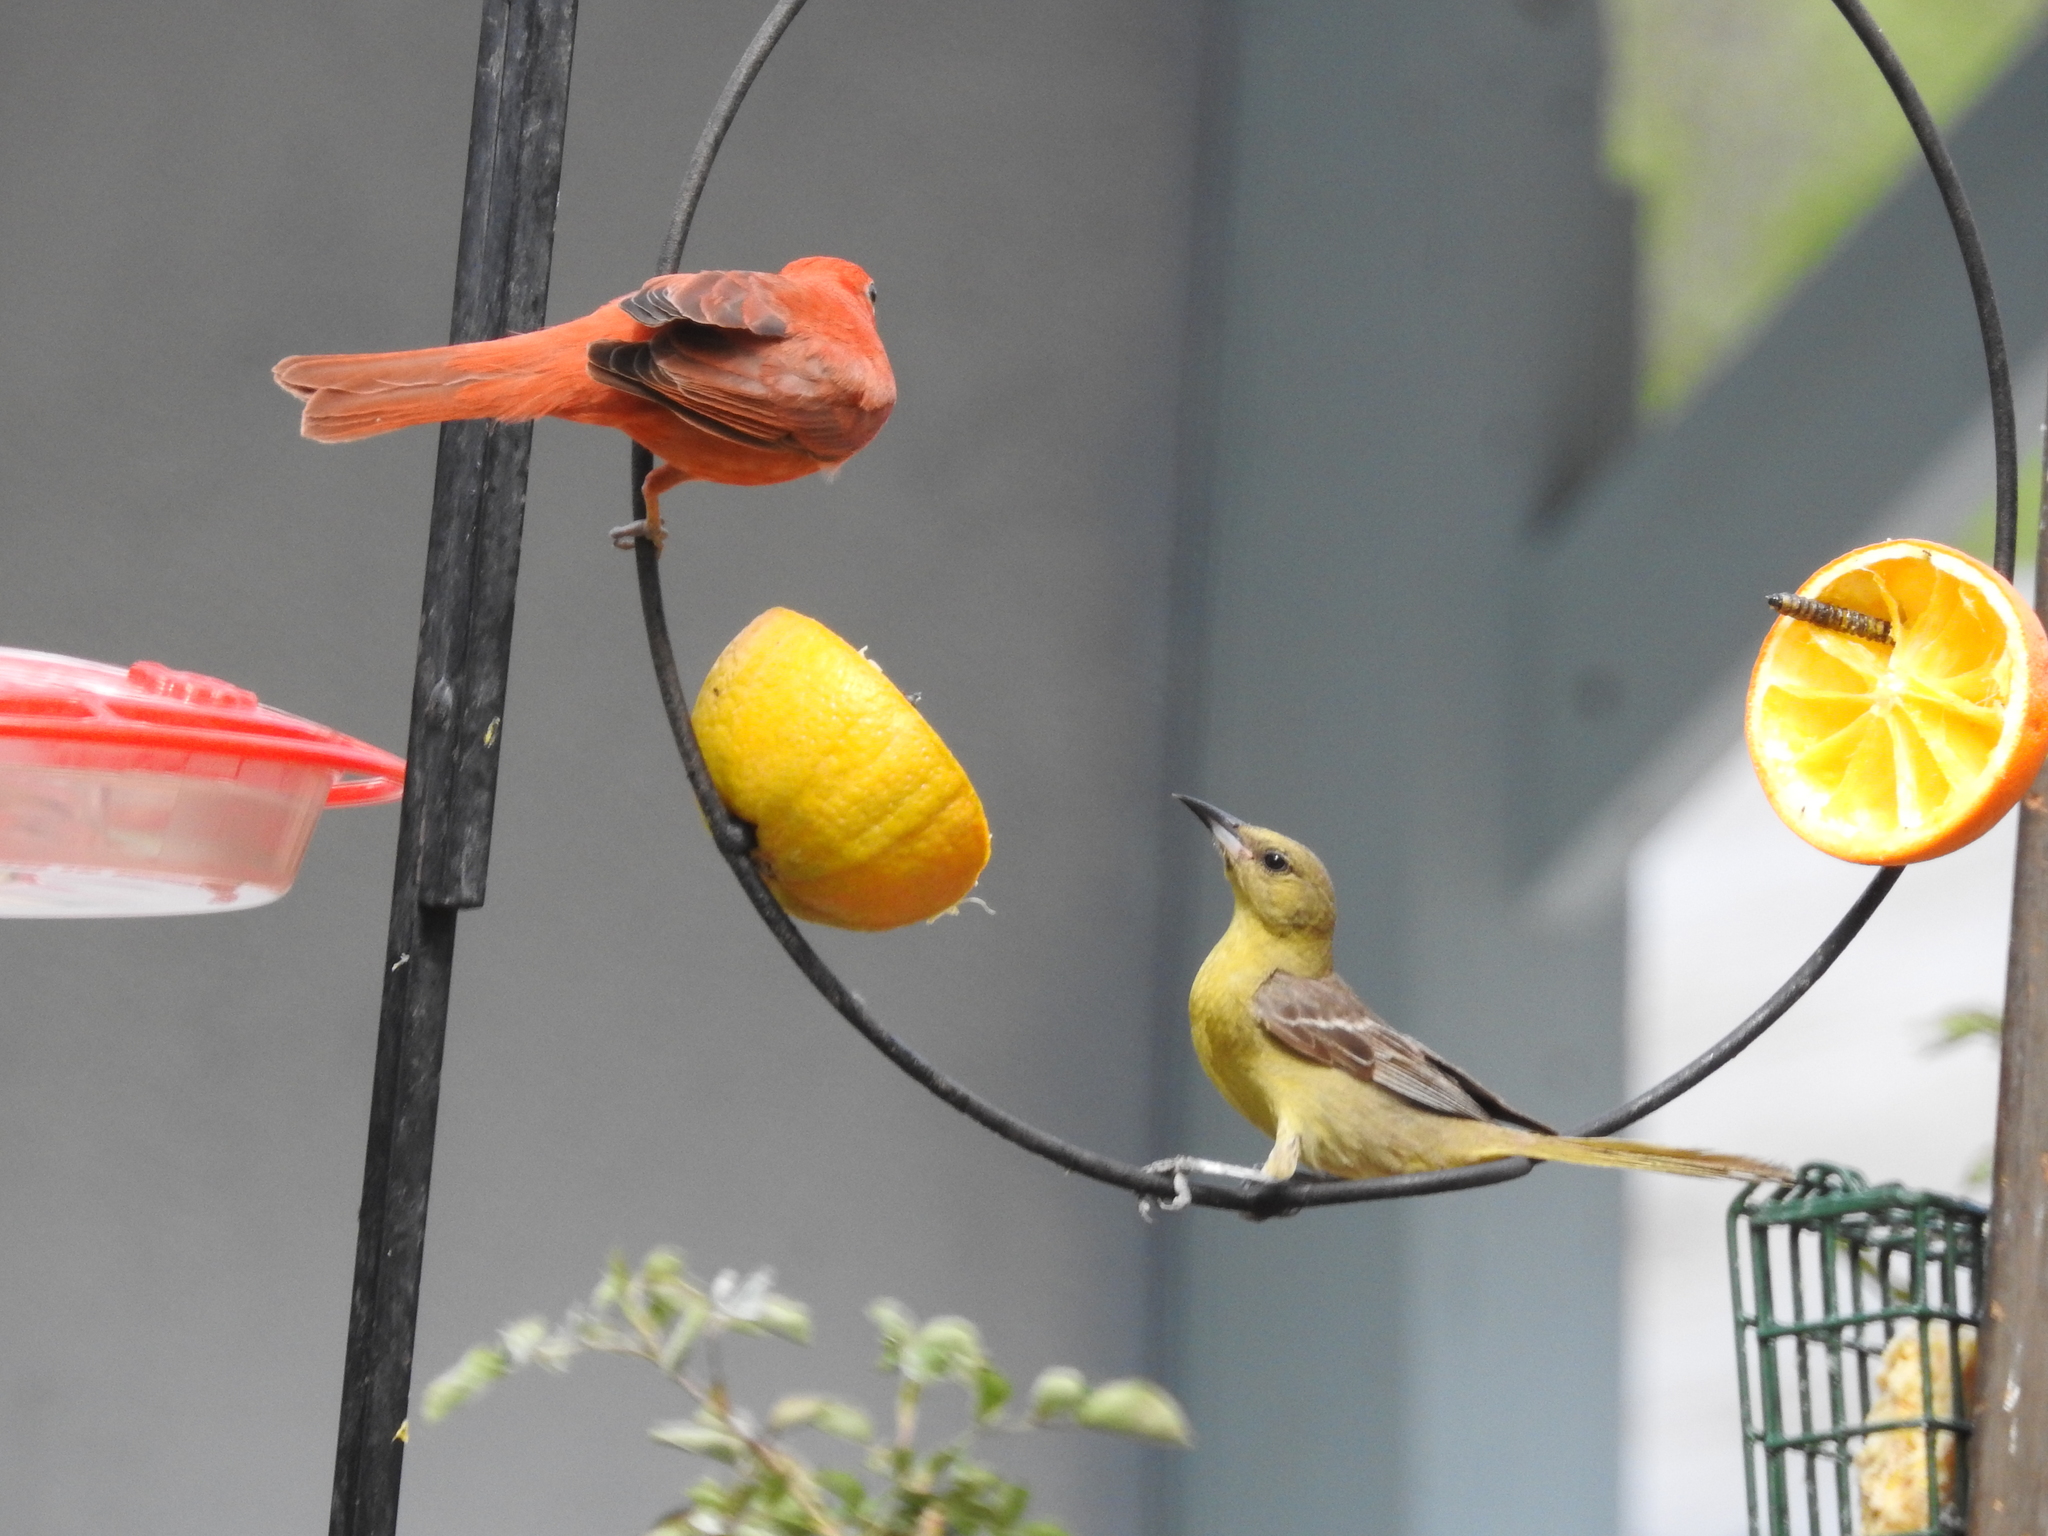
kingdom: Animalia
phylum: Chordata
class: Aves
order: Passeriformes
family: Cardinalidae
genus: Piranga
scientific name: Piranga rubra
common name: Summer tanager
